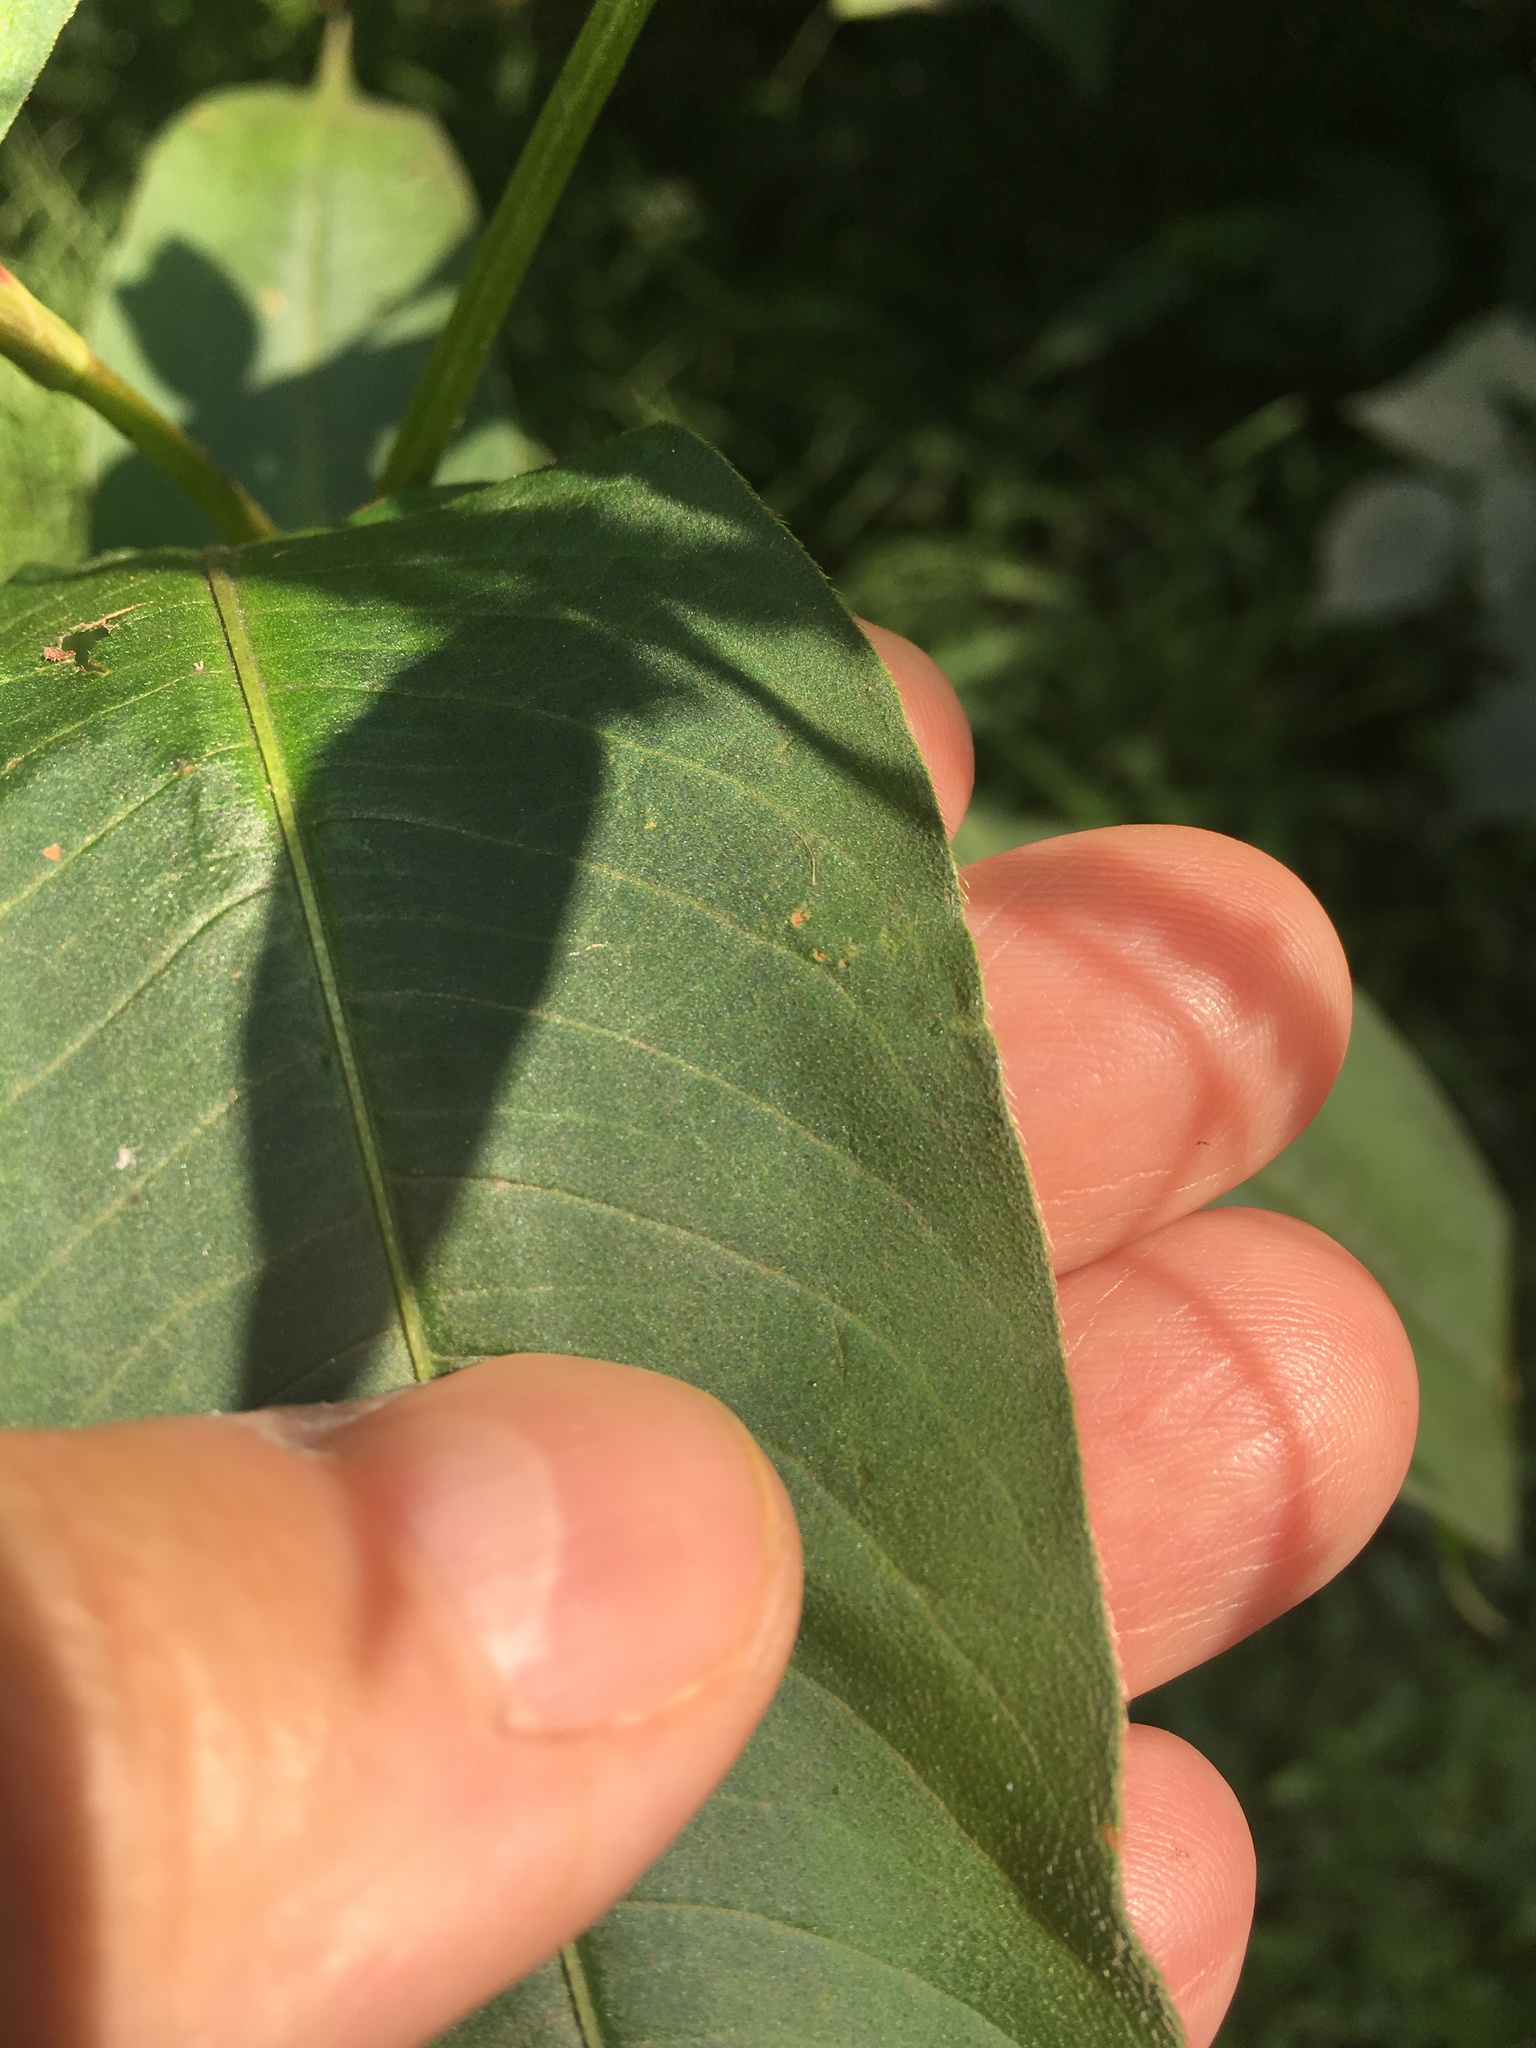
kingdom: Plantae
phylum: Tracheophyta
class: Magnoliopsida
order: Caryophyllales
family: Polygonaceae
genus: Persicaria
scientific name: Persicaria extremiorientalis
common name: Far-eastern smartweed
